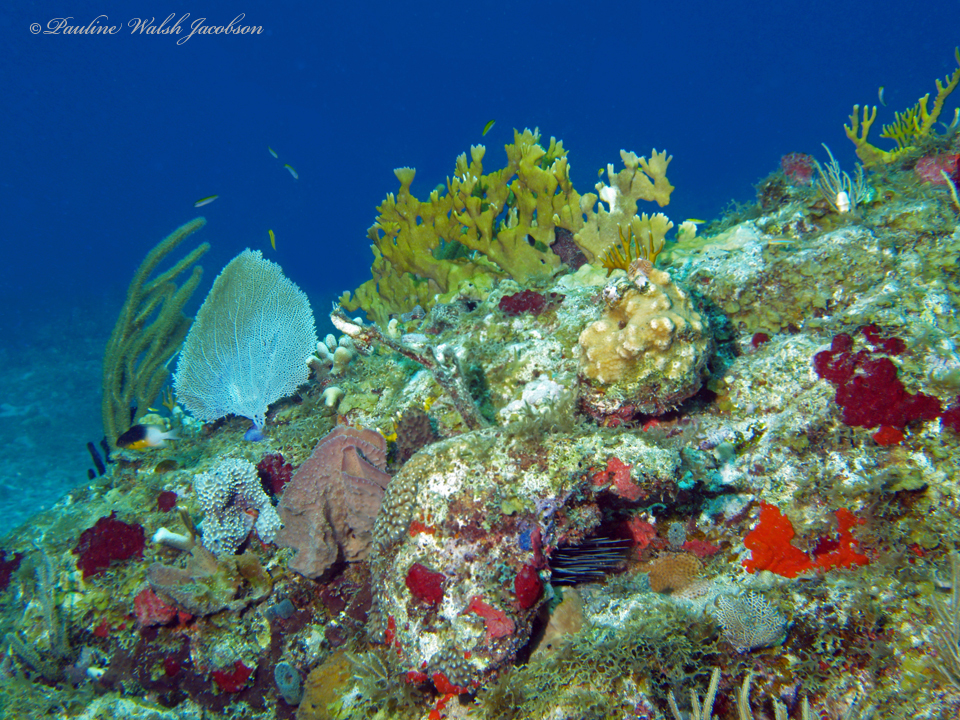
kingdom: Animalia
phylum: Chordata
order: Perciformes
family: Pomacentridae
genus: Stegastes
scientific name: Stegastes partitus
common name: Bicolor damselfish
